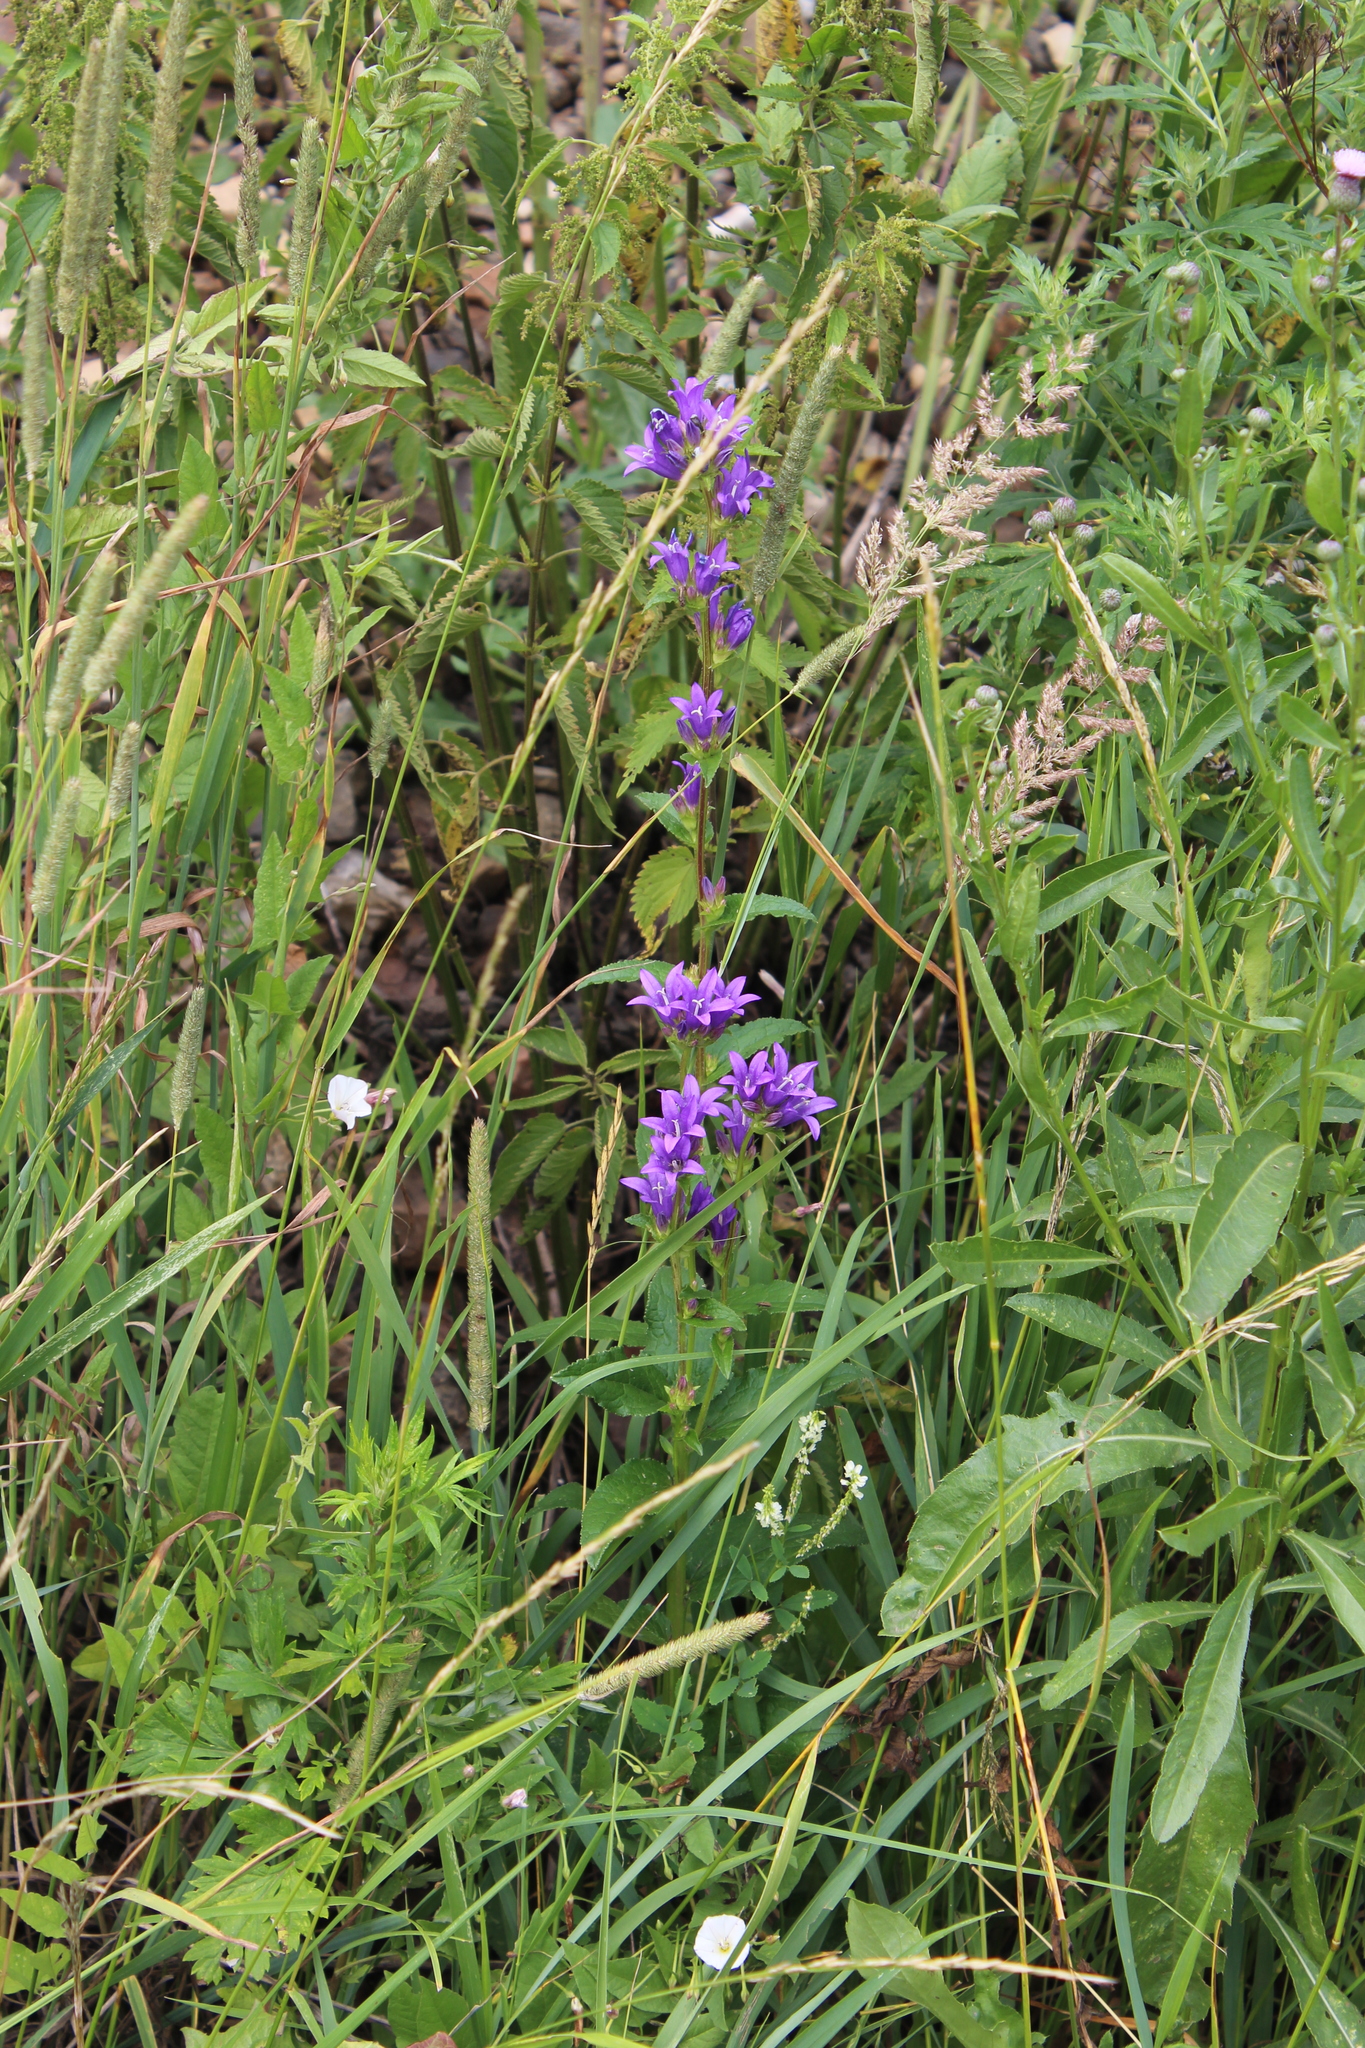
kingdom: Plantae
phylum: Tracheophyta
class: Magnoliopsida
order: Asterales
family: Campanulaceae
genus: Campanula
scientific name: Campanula glomerata
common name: Clustered bellflower
